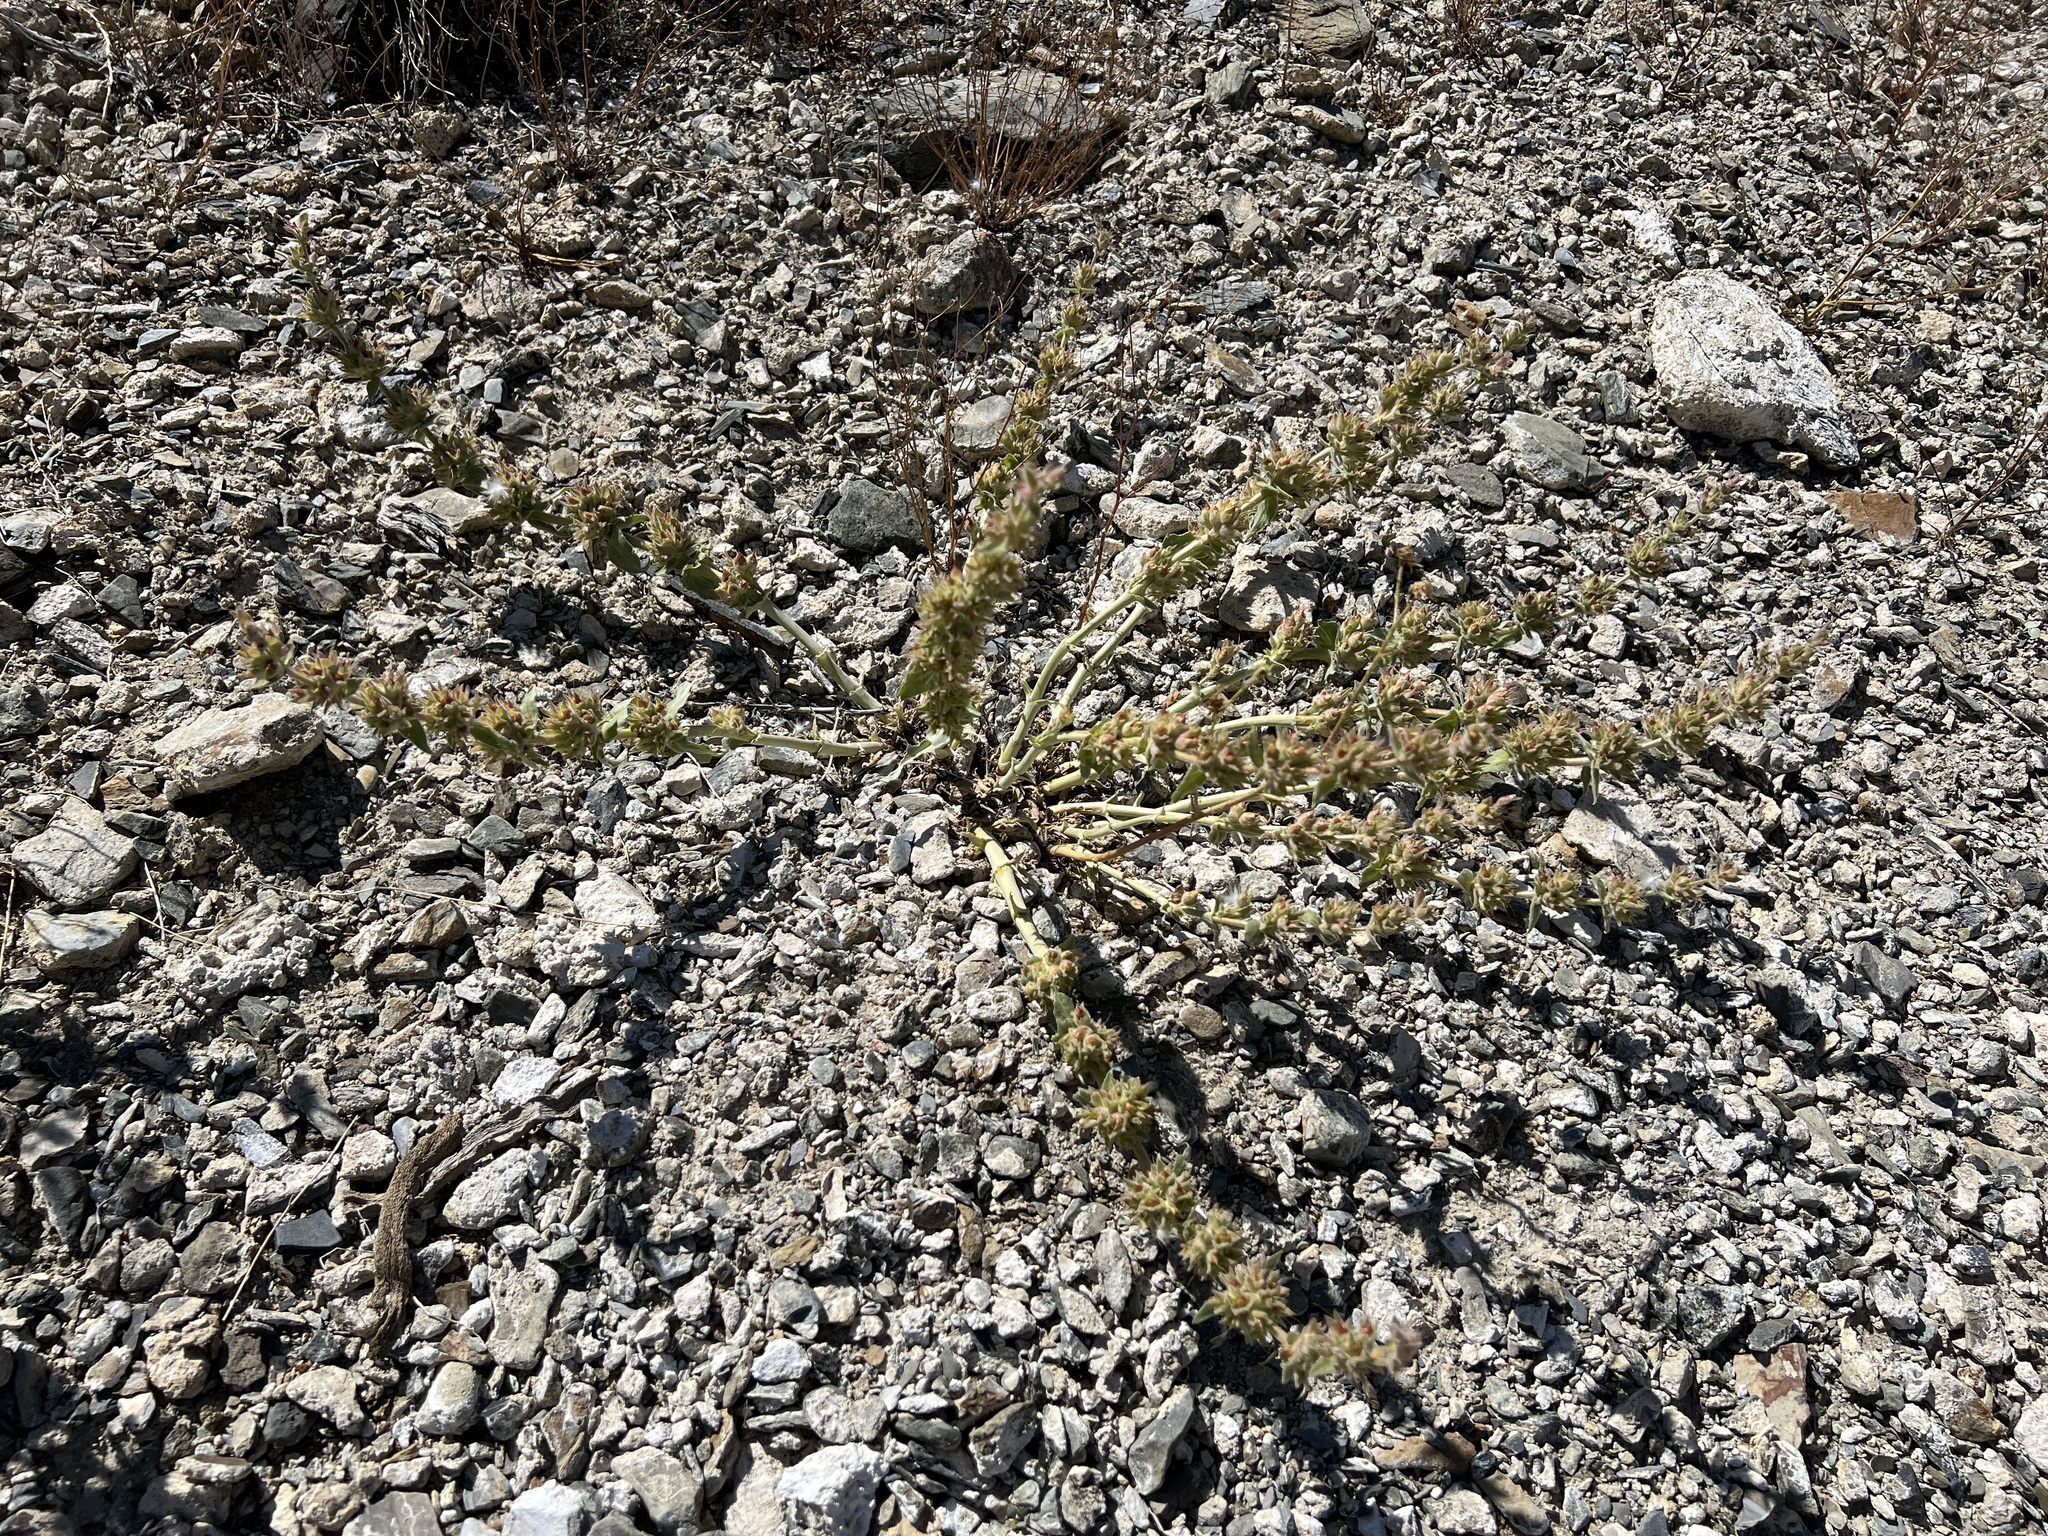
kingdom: Plantae
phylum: Tracheophyta
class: Magnoliopsida
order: Lamiales
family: Plantaginaceae
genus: Penstemon
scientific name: Penstemon monoensis
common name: Mono penstemon
